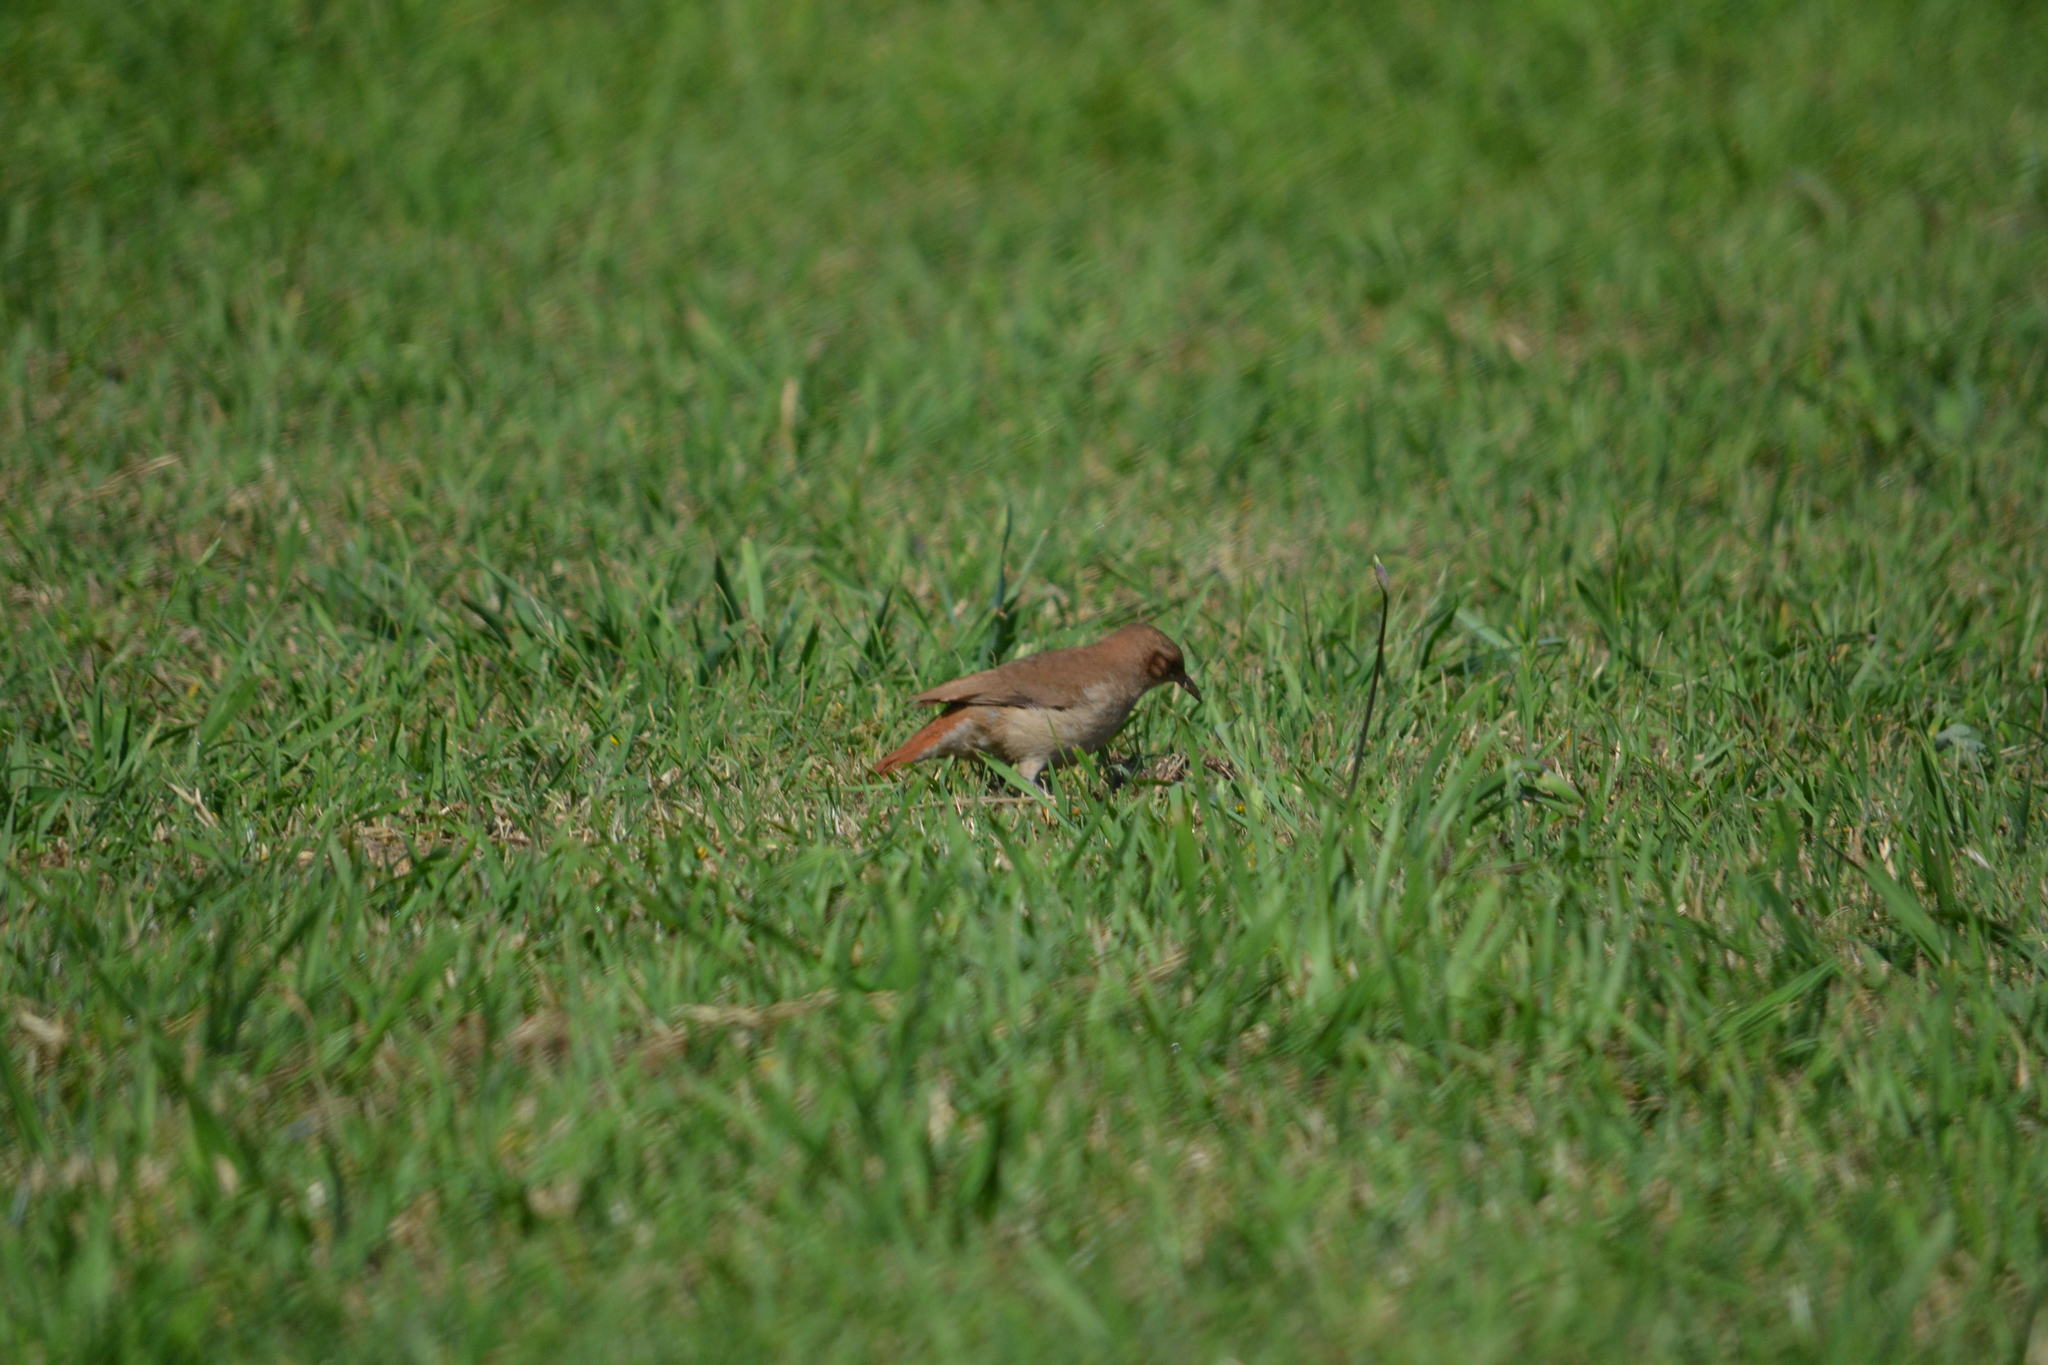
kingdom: Animalia
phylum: Chordata
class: Aves
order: Passeriformes
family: Furnariidae
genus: Furnarius
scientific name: Furnarius rufus
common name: Rufous hornero
